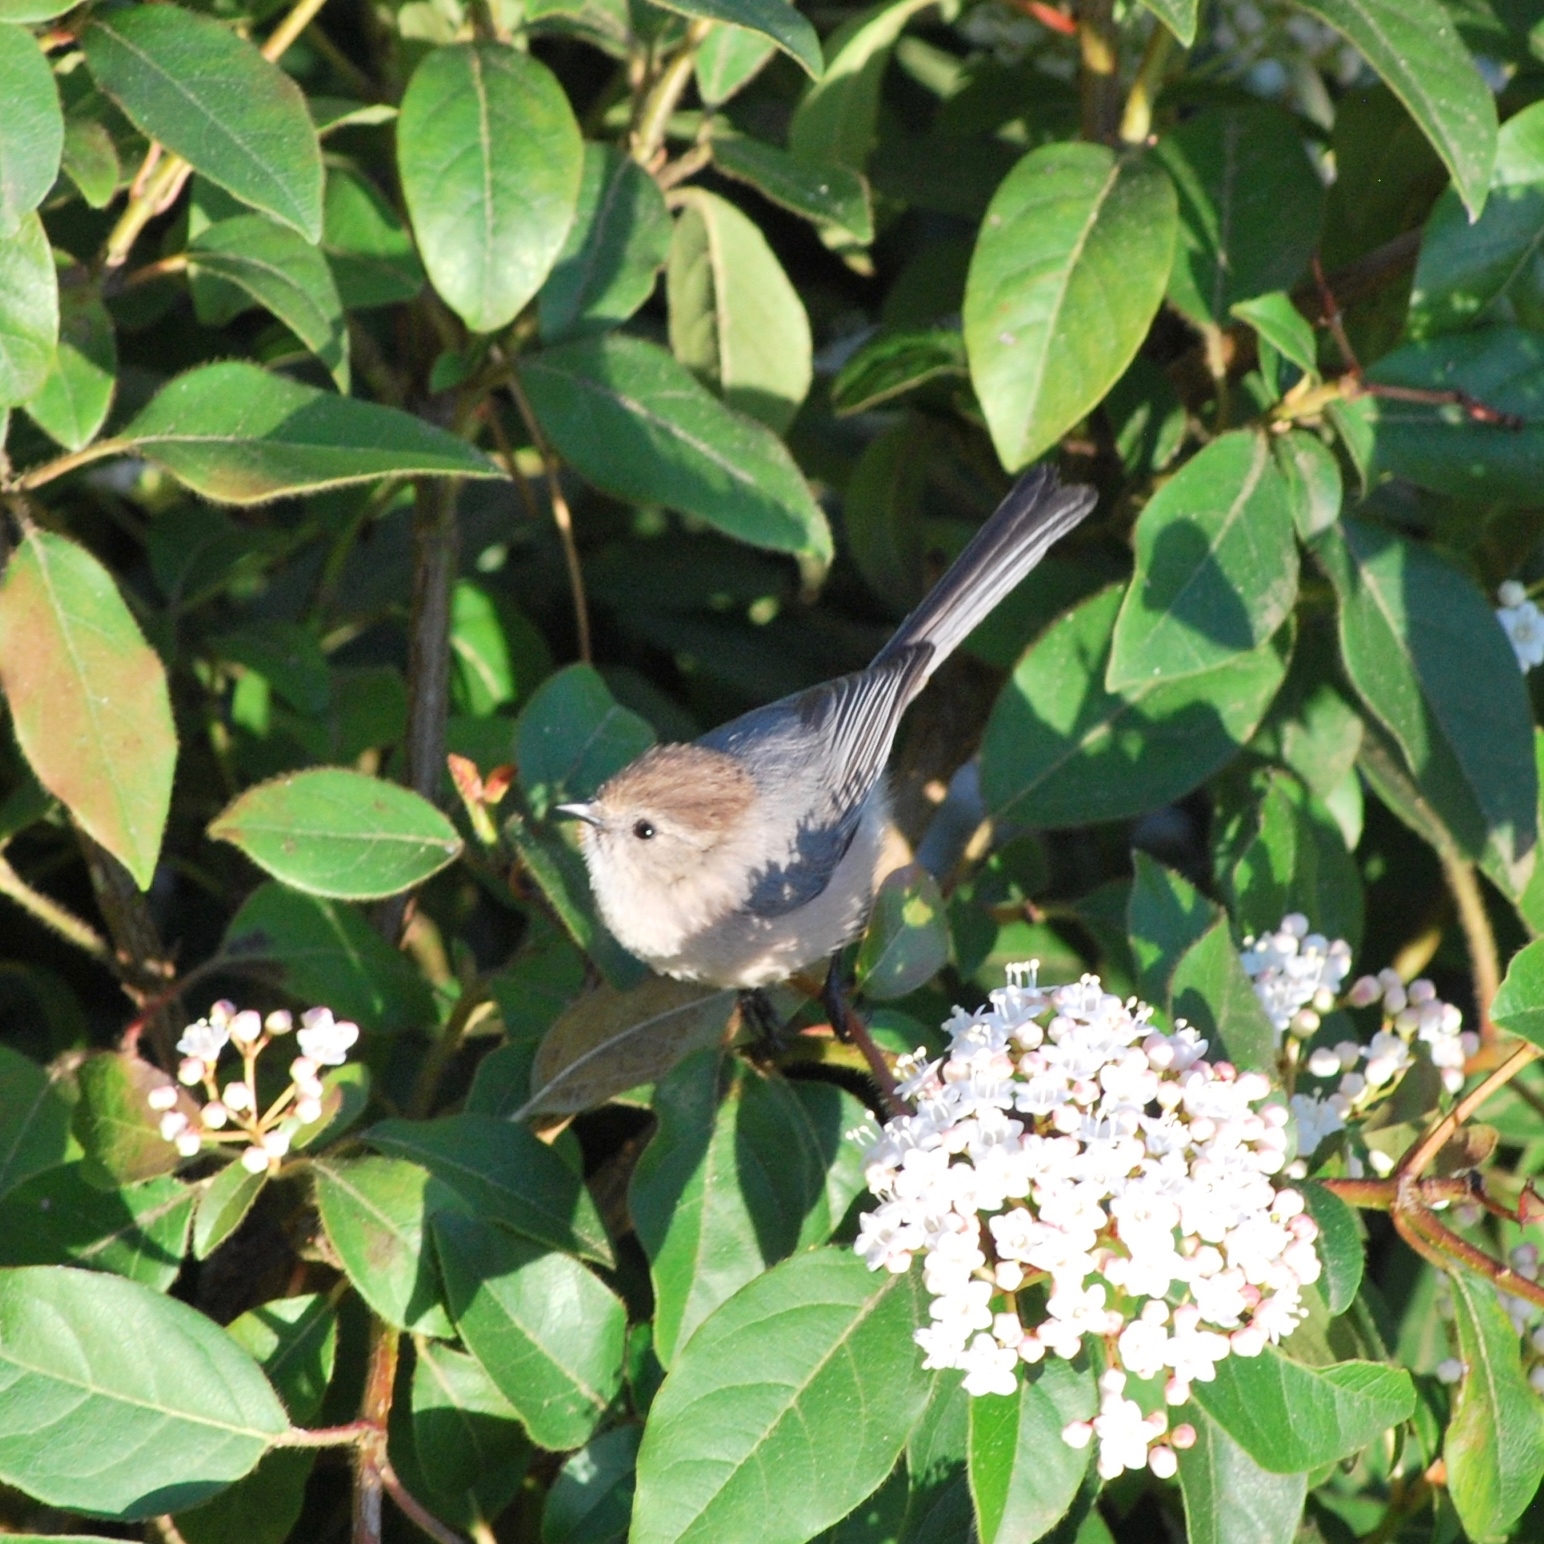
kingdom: Animalia
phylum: Chordata
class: Aves
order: Passeriformes
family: Aegithalidae
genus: Psaltriparus
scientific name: Psaltriparus minimus
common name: American bushtit
